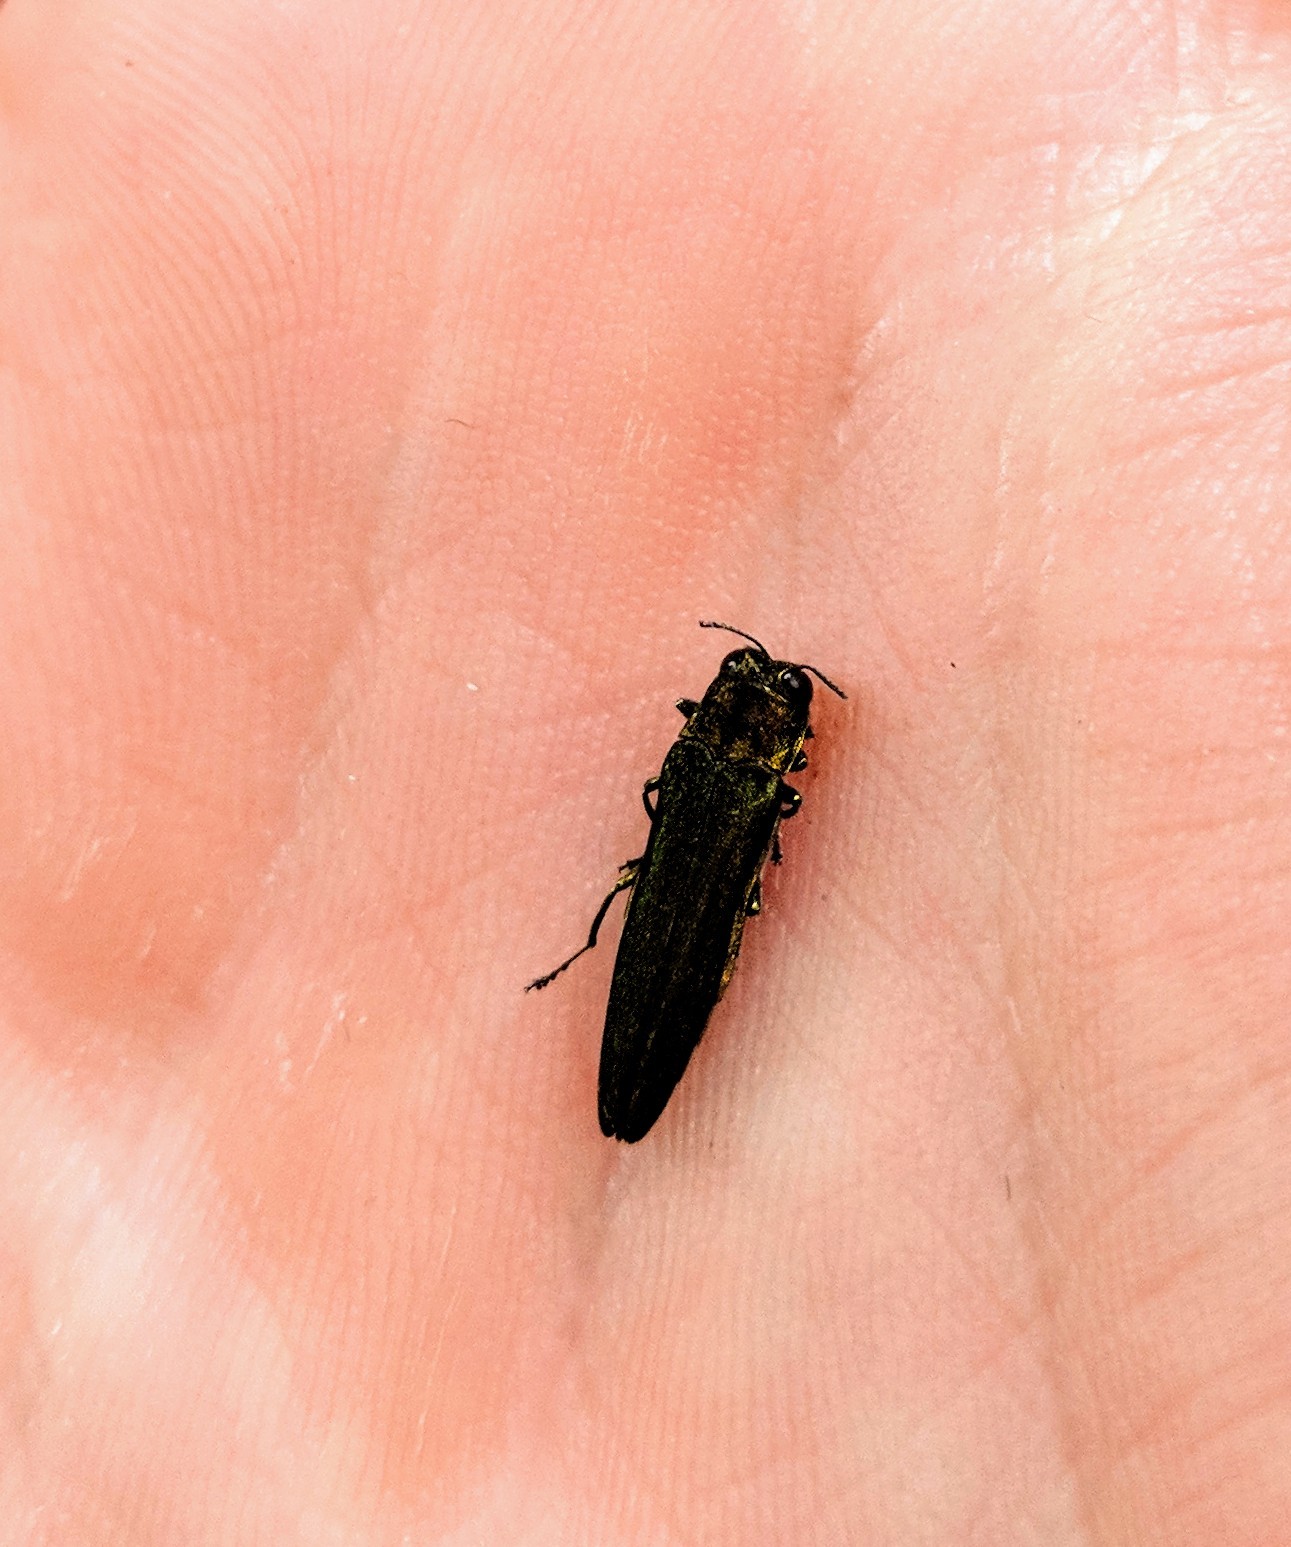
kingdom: Animalia
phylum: Arthropoda
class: Insecta
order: Coleoptera
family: Buprestidae
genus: Agrilus
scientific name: Agrilus planipennis
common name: Emerald ash borer
